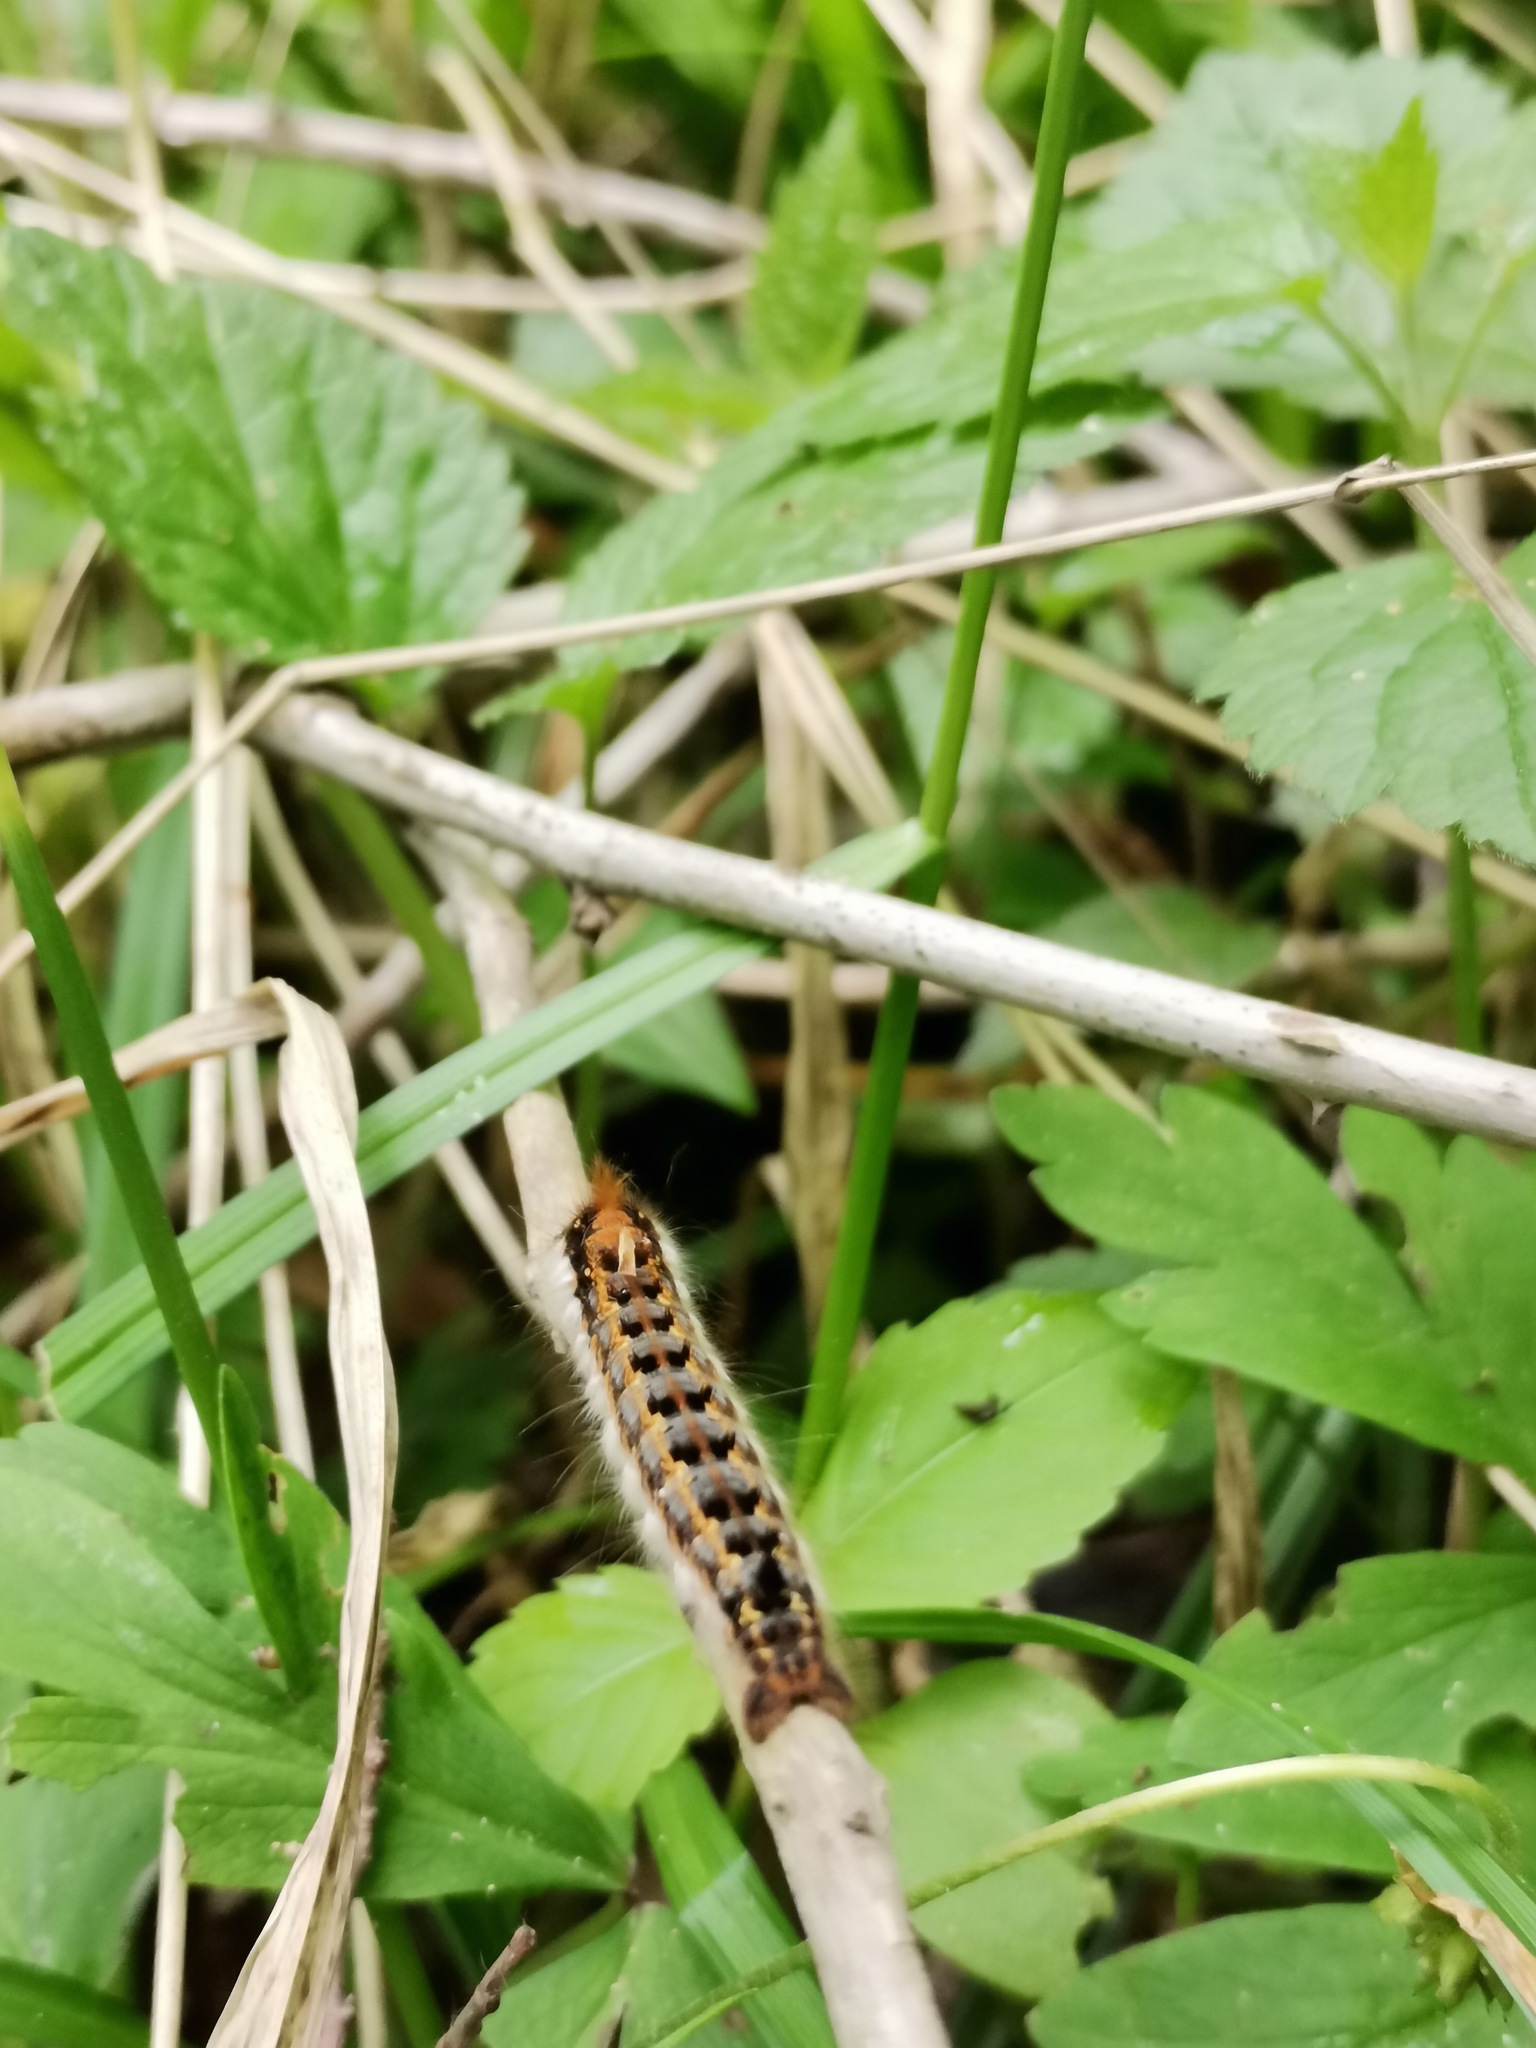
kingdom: Animalia
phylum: Arthropoda
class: Insecta
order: Lepidoptera
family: Lasiocampidae
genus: Euthrix
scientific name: Euthrix potatoria
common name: Drinker
